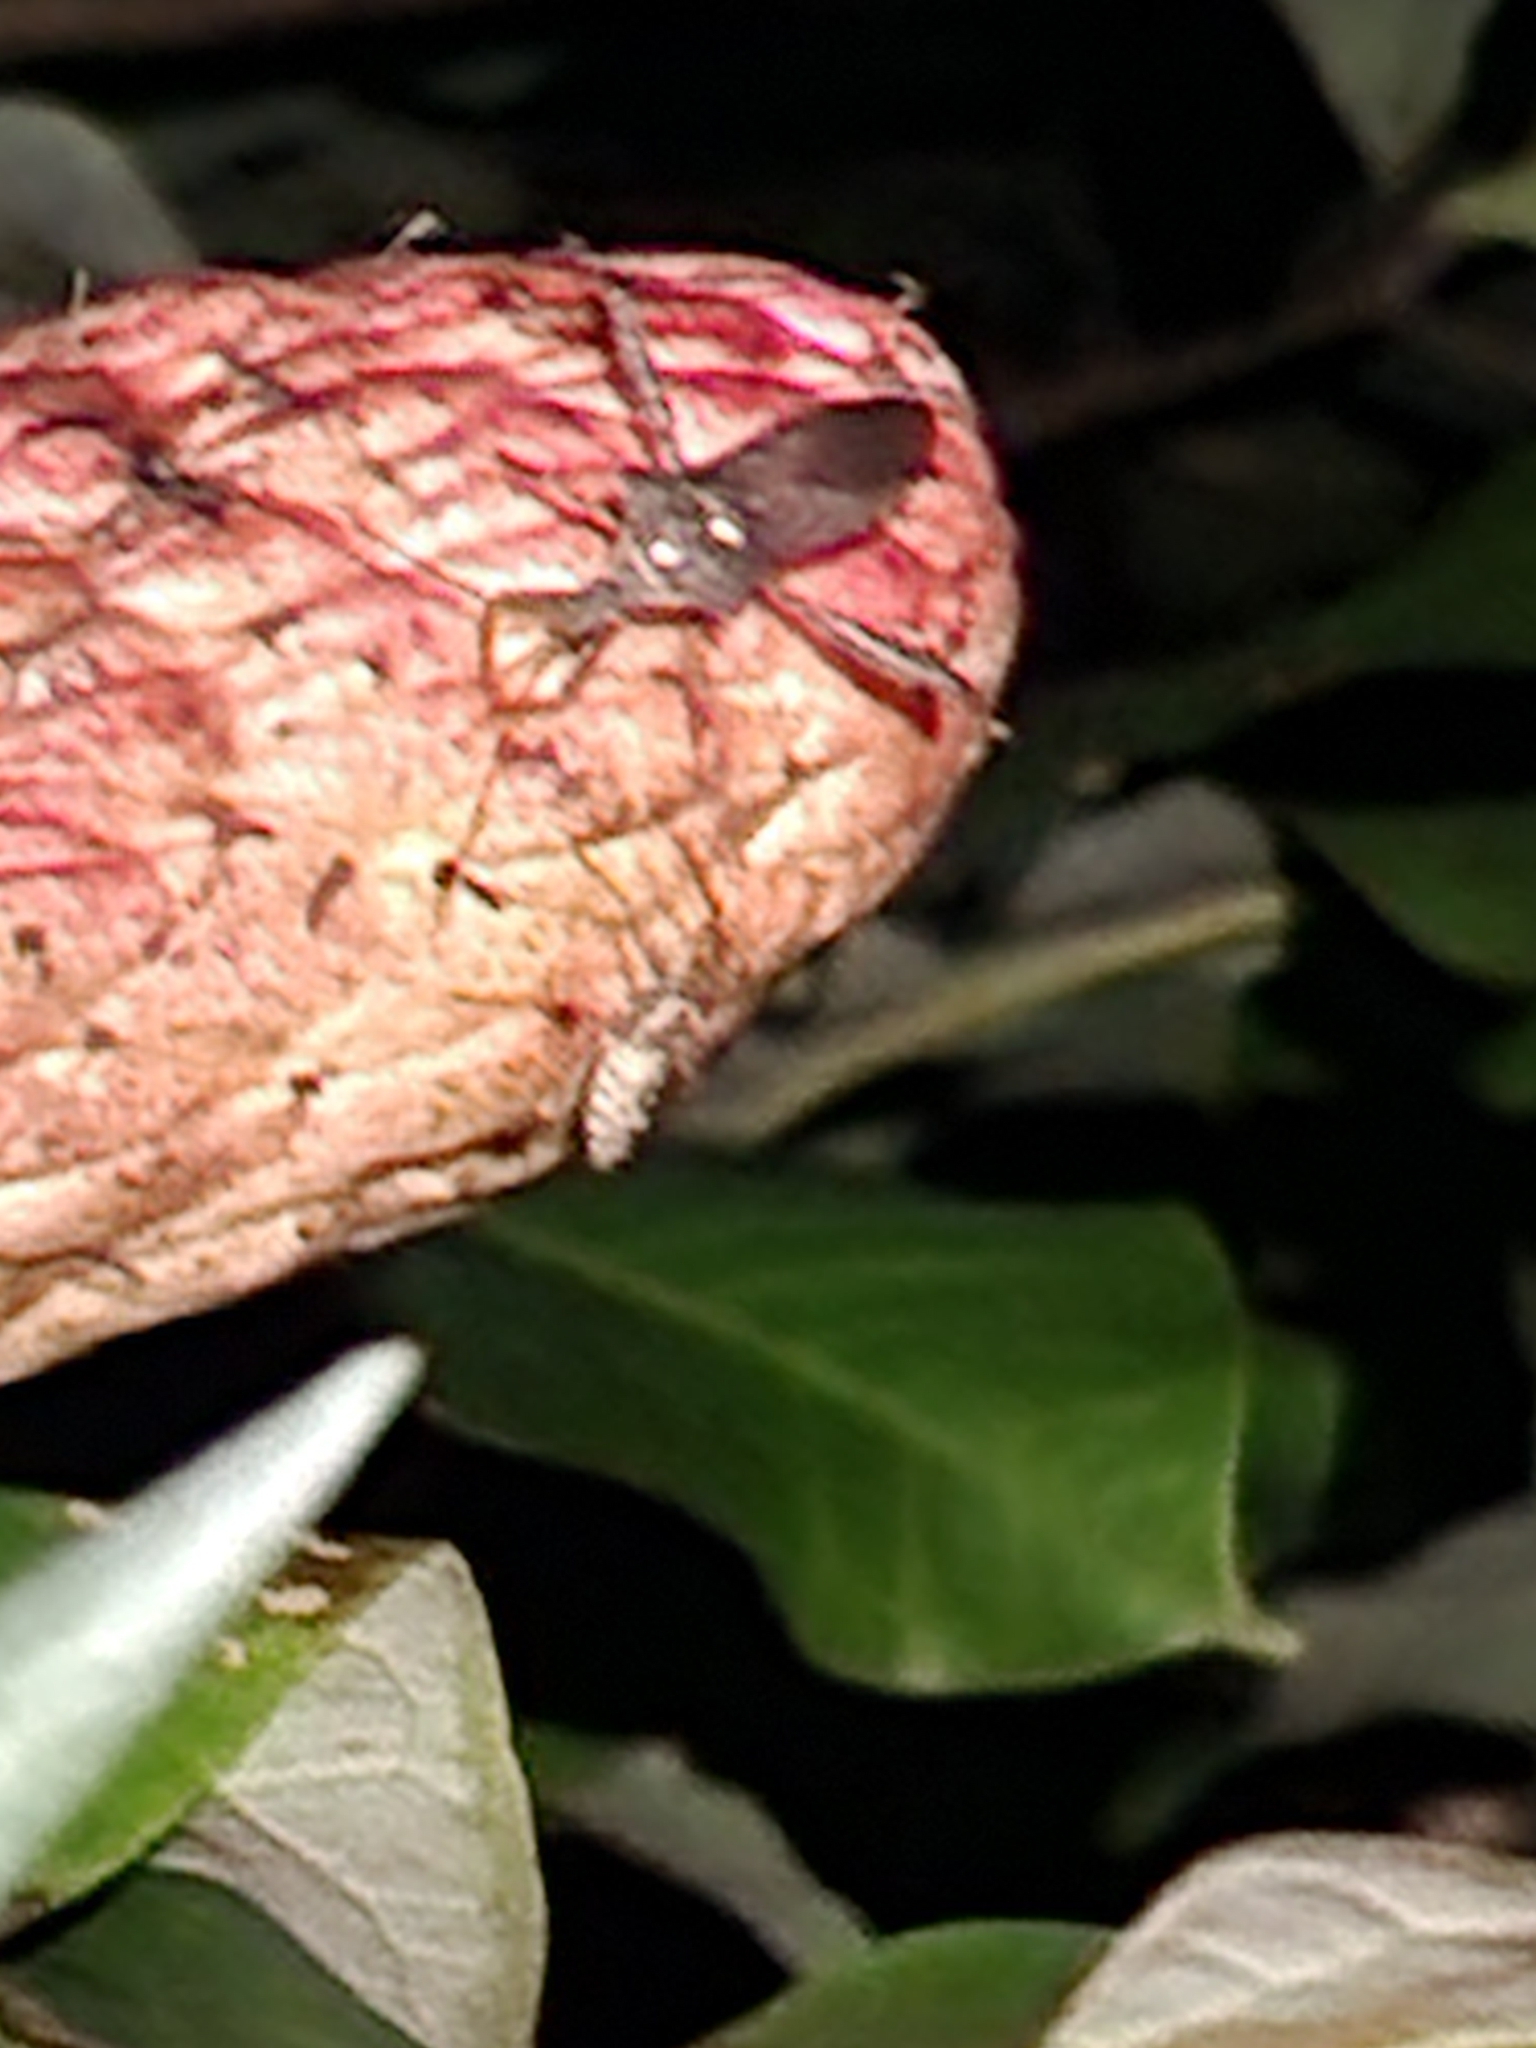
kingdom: Animalia
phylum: Arthropoda
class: Insecta
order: Hemiptera
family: Coreidae
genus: Leptoglossus
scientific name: Leptoglossus fulvicornis
